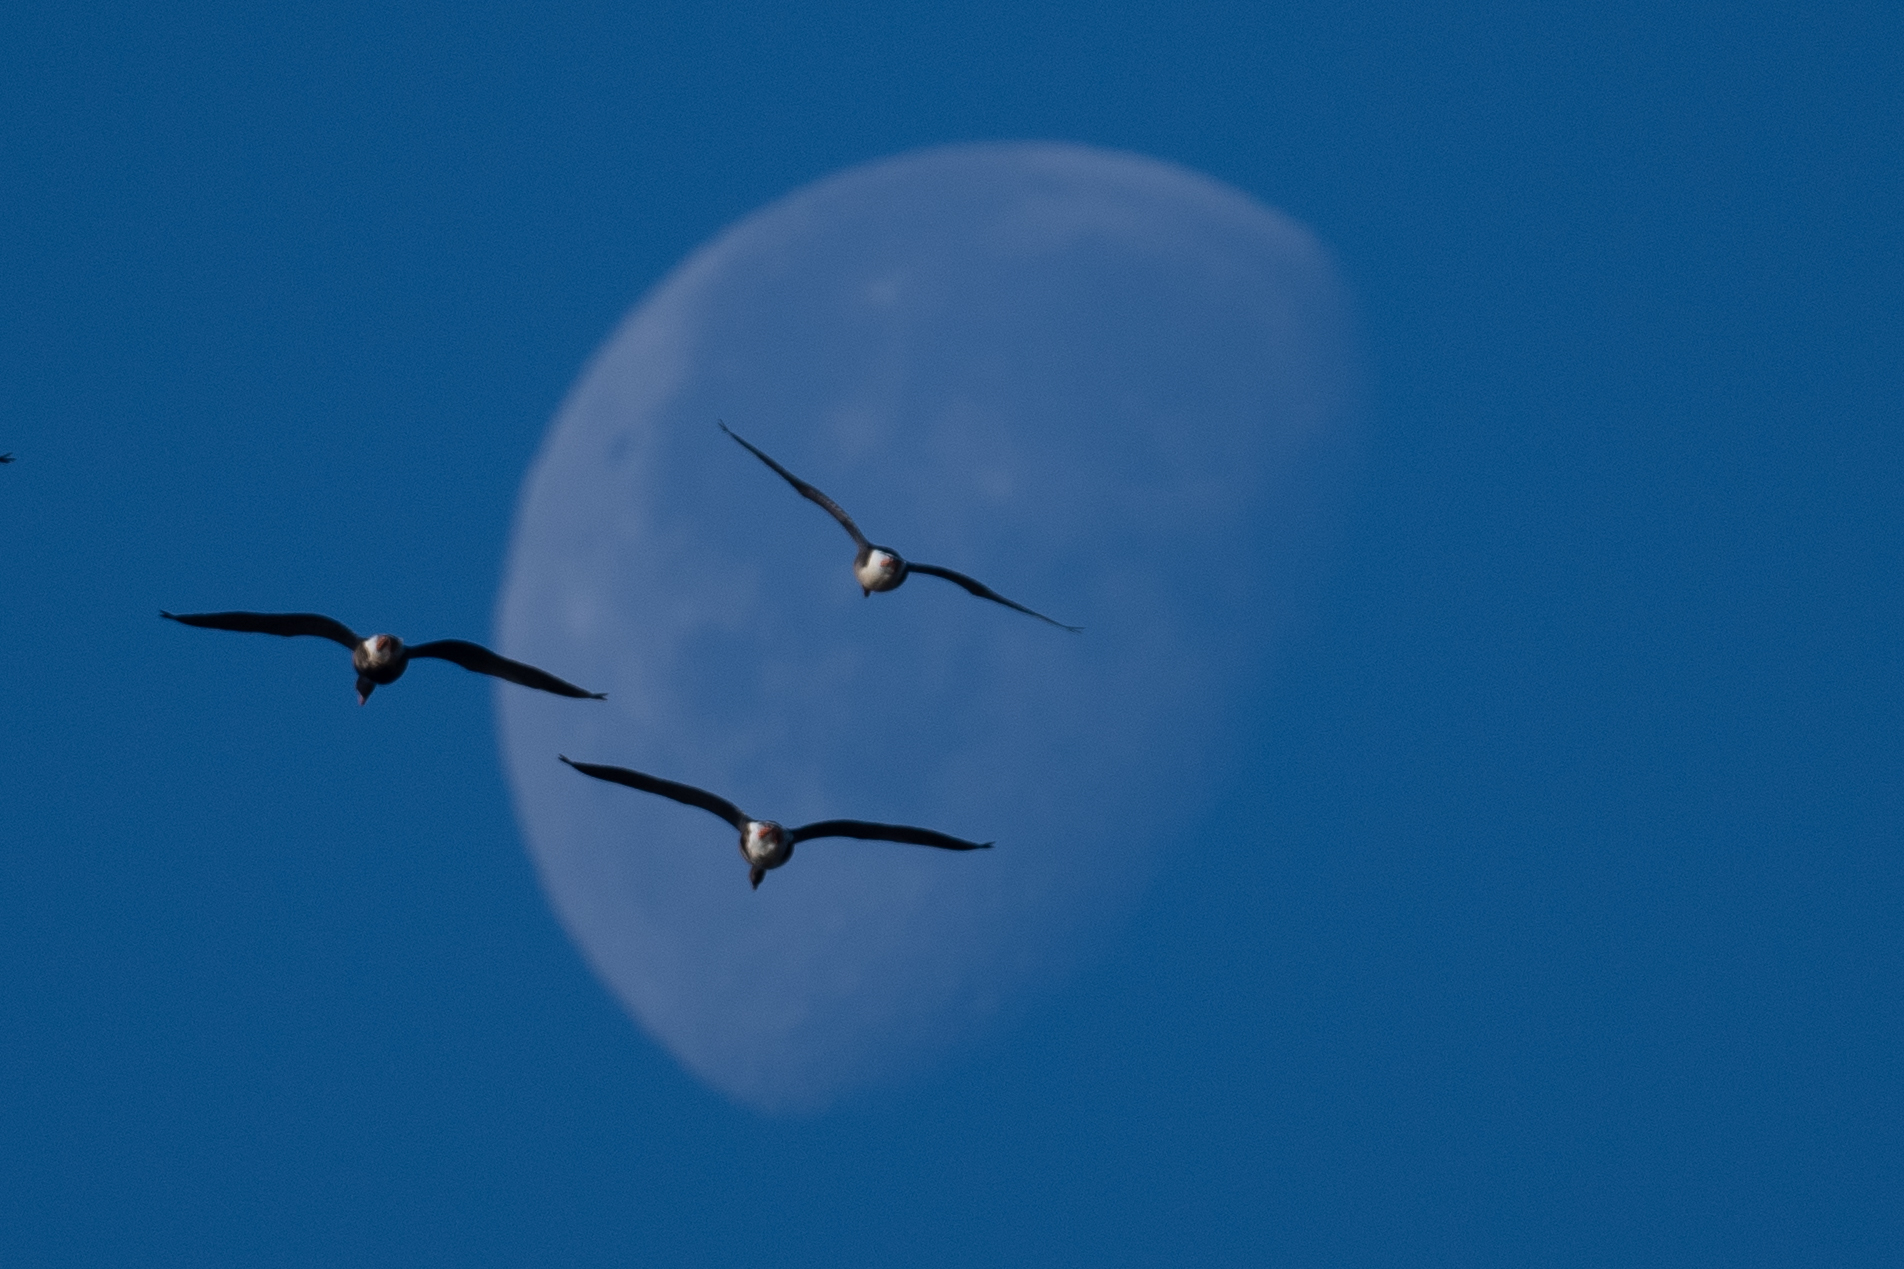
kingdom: Animalia
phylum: Chordata
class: Aves
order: Anseriformes
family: Anatidae
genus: Anser
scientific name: Anser albifrons
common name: Greater white-fronted goose
